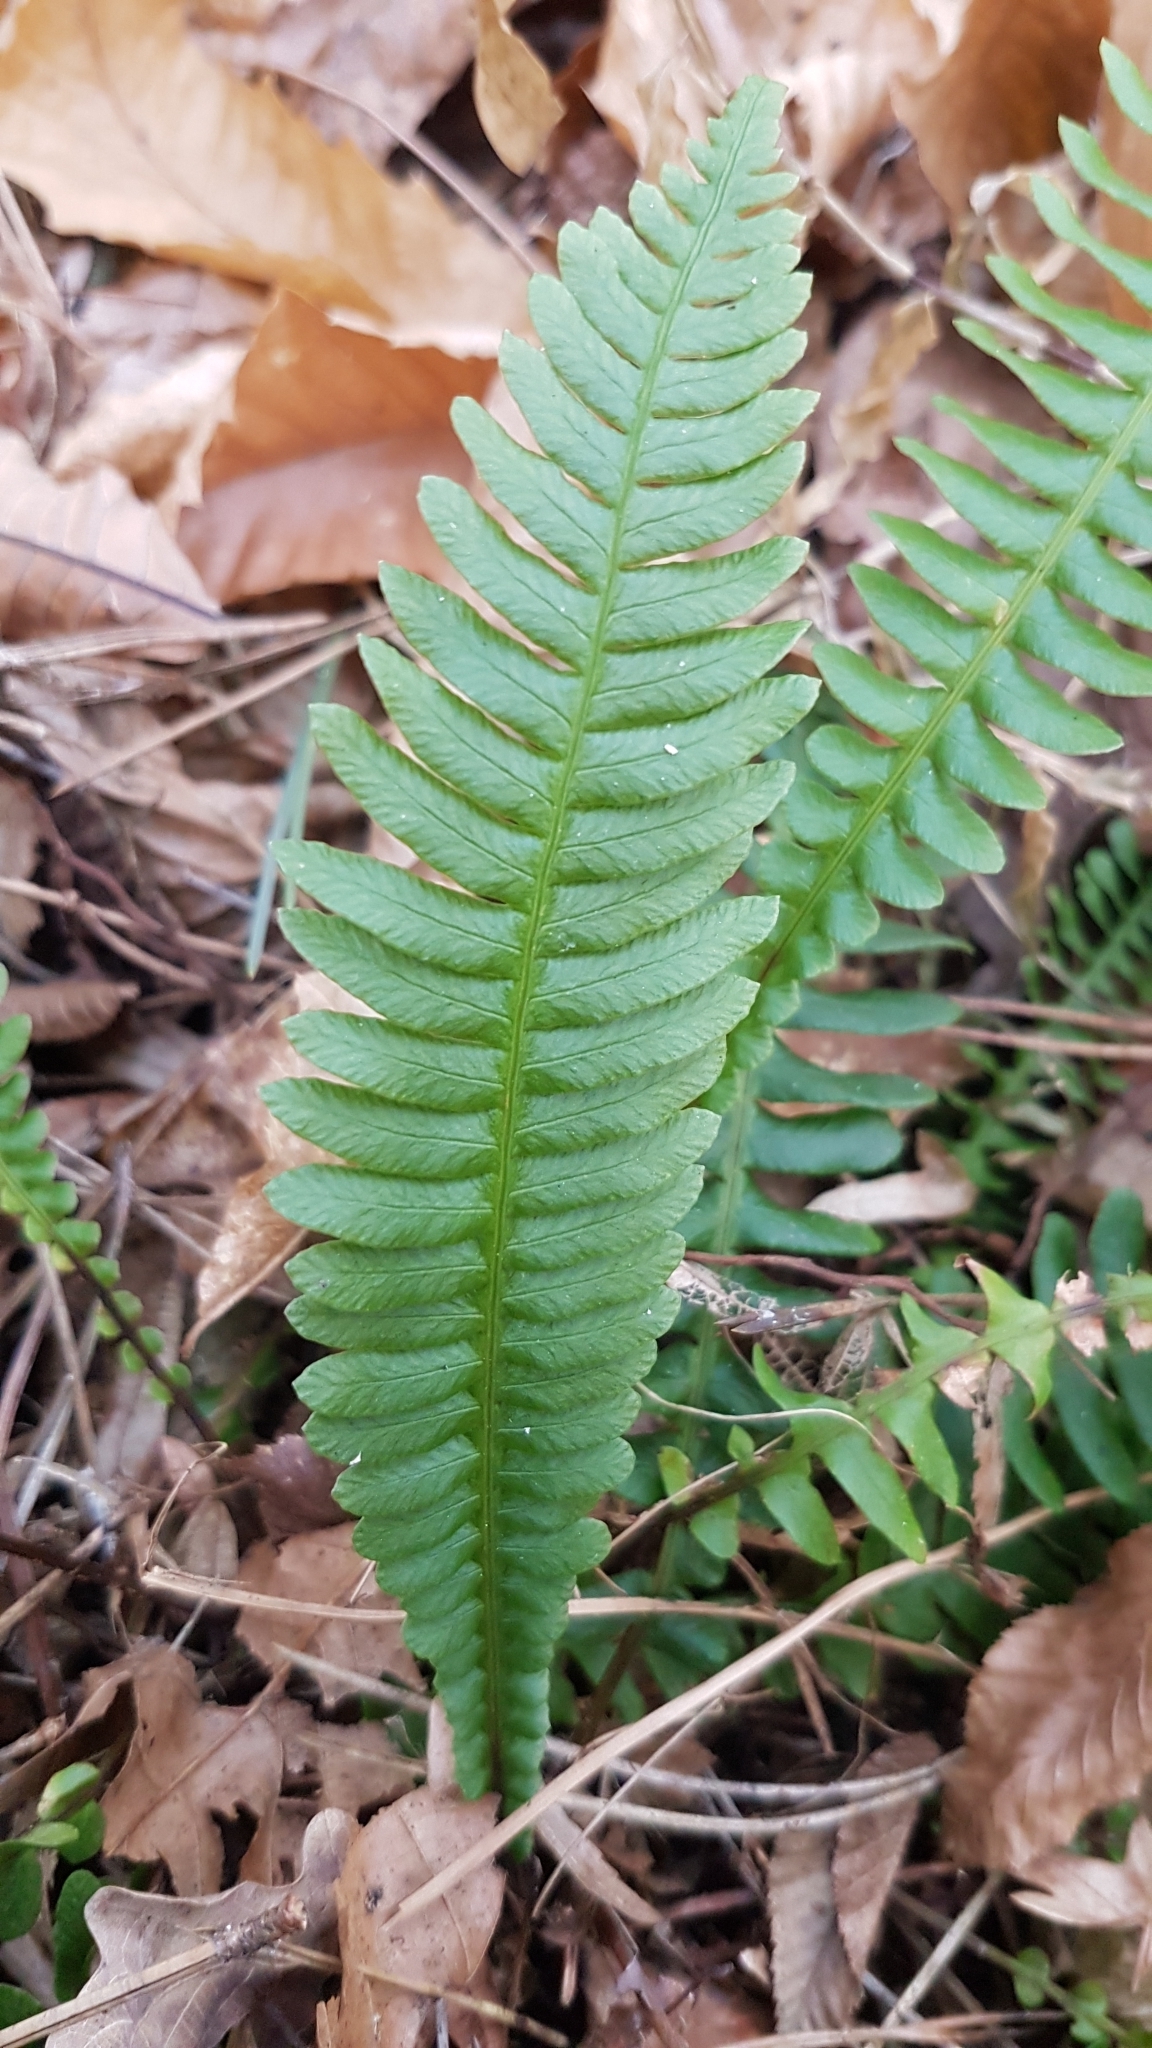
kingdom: Plantae
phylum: Tracheophyta
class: Polypodiopsida
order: Polypodiales
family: Blechnaceae
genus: Struthiopteris
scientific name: Struthiopteris spicant
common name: Deer fern
